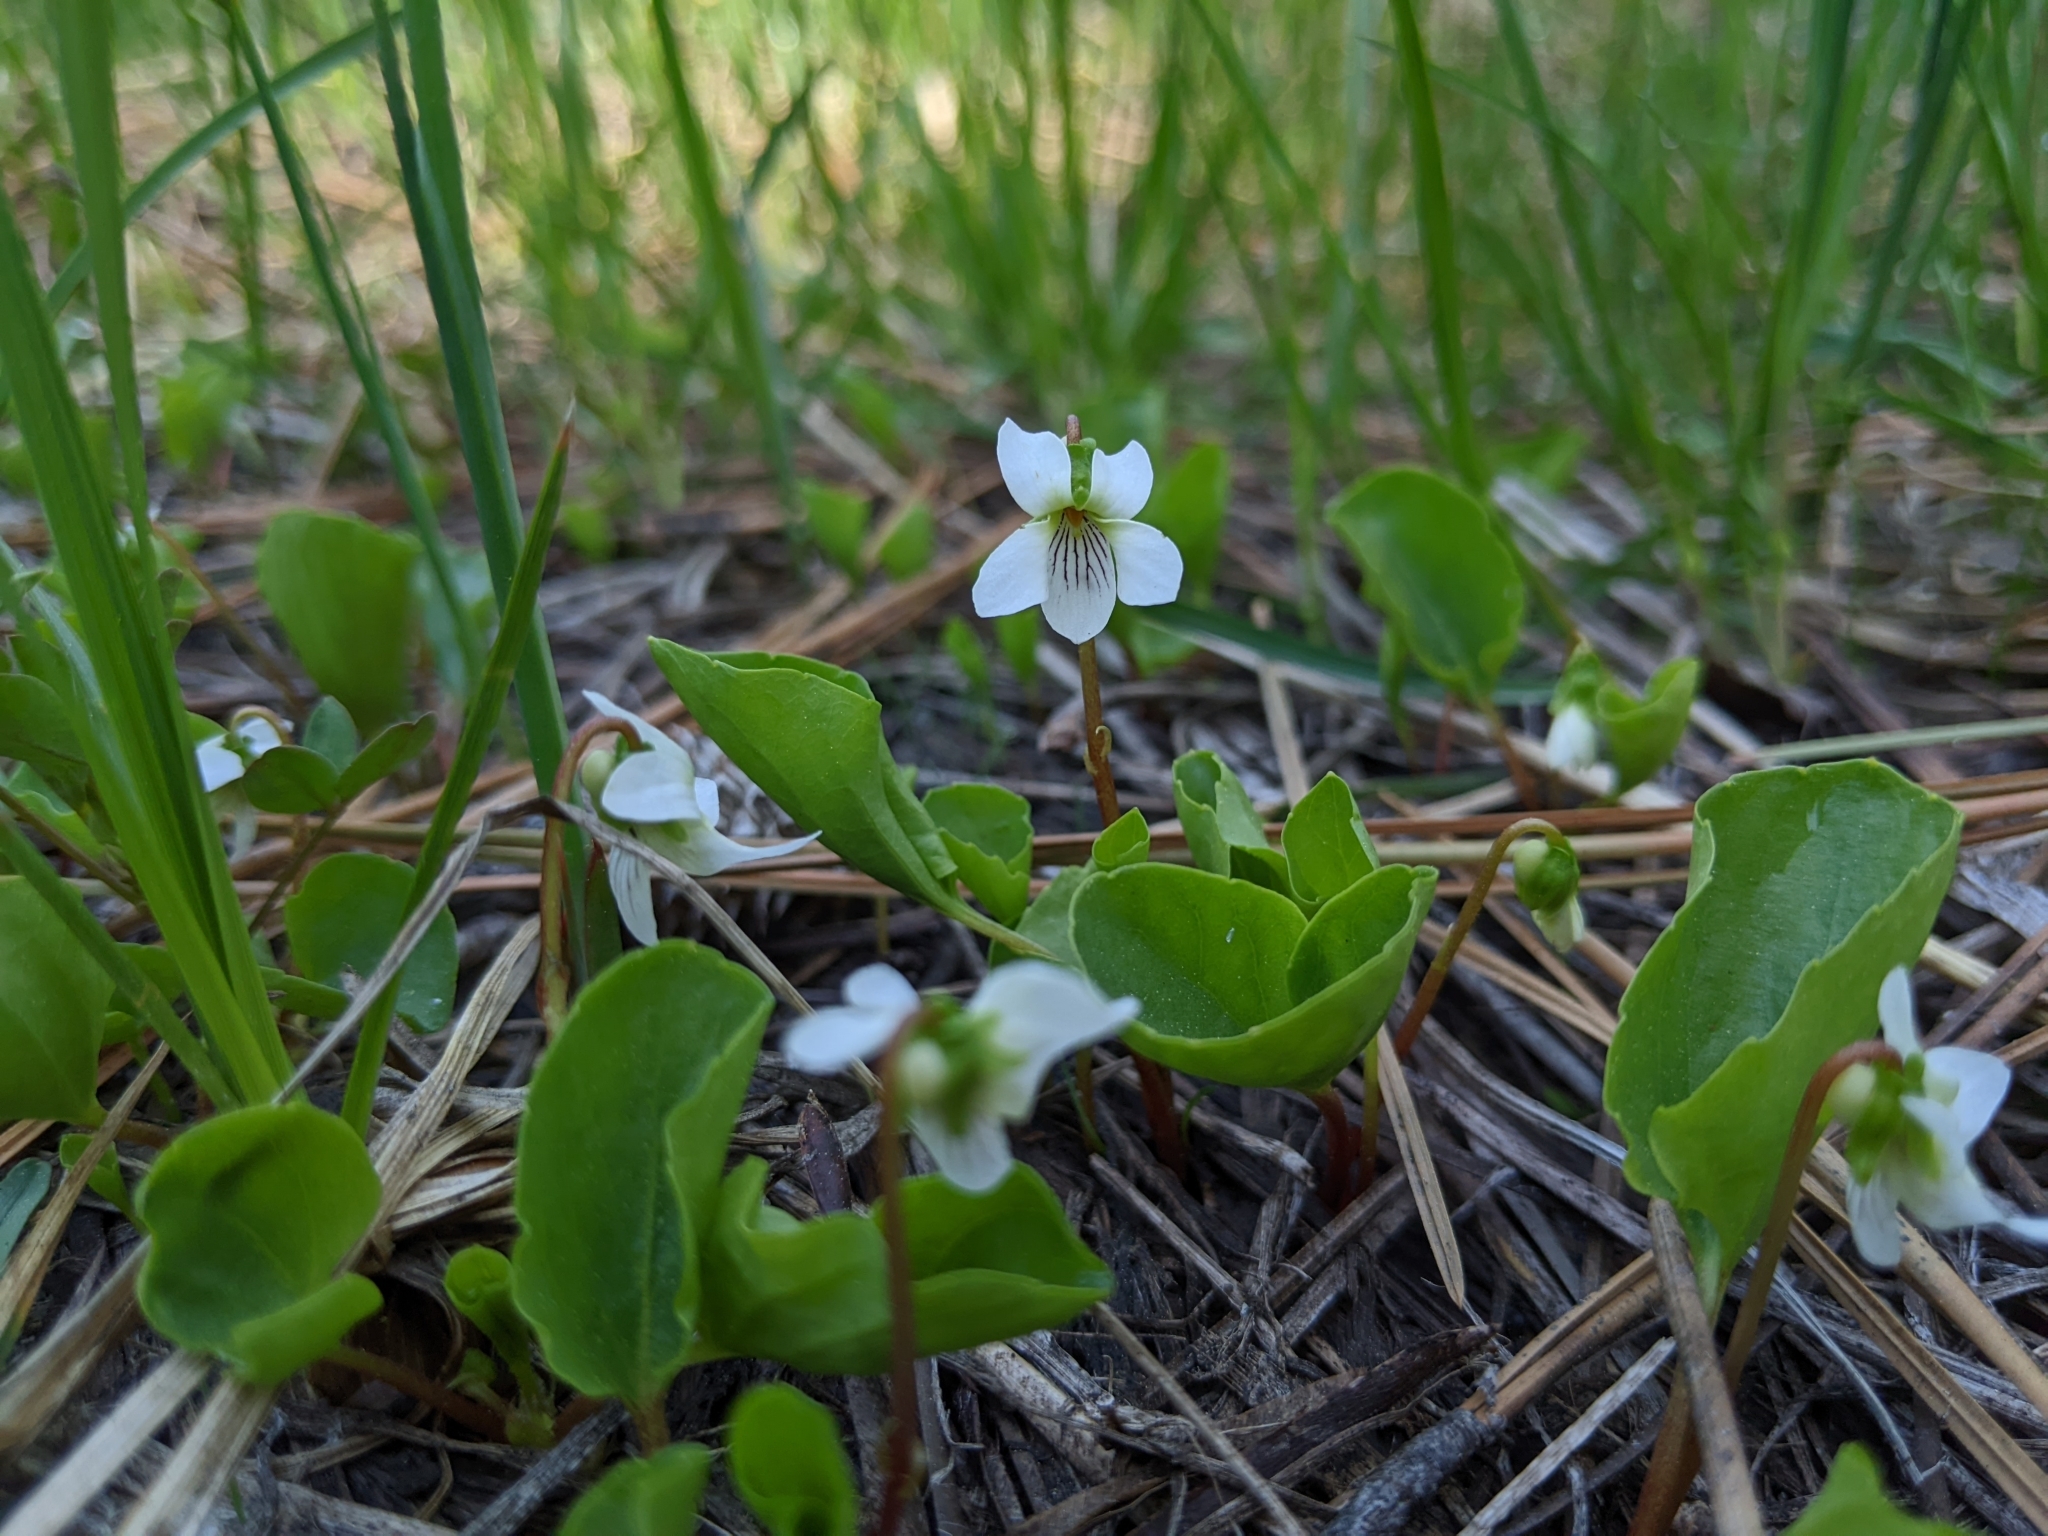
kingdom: Plantae
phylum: Tracheophyta
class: Magnoliopsida
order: Malpighiales
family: Violaceae
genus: Viola
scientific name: Viola macloskeyi
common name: Macloskey's violet
